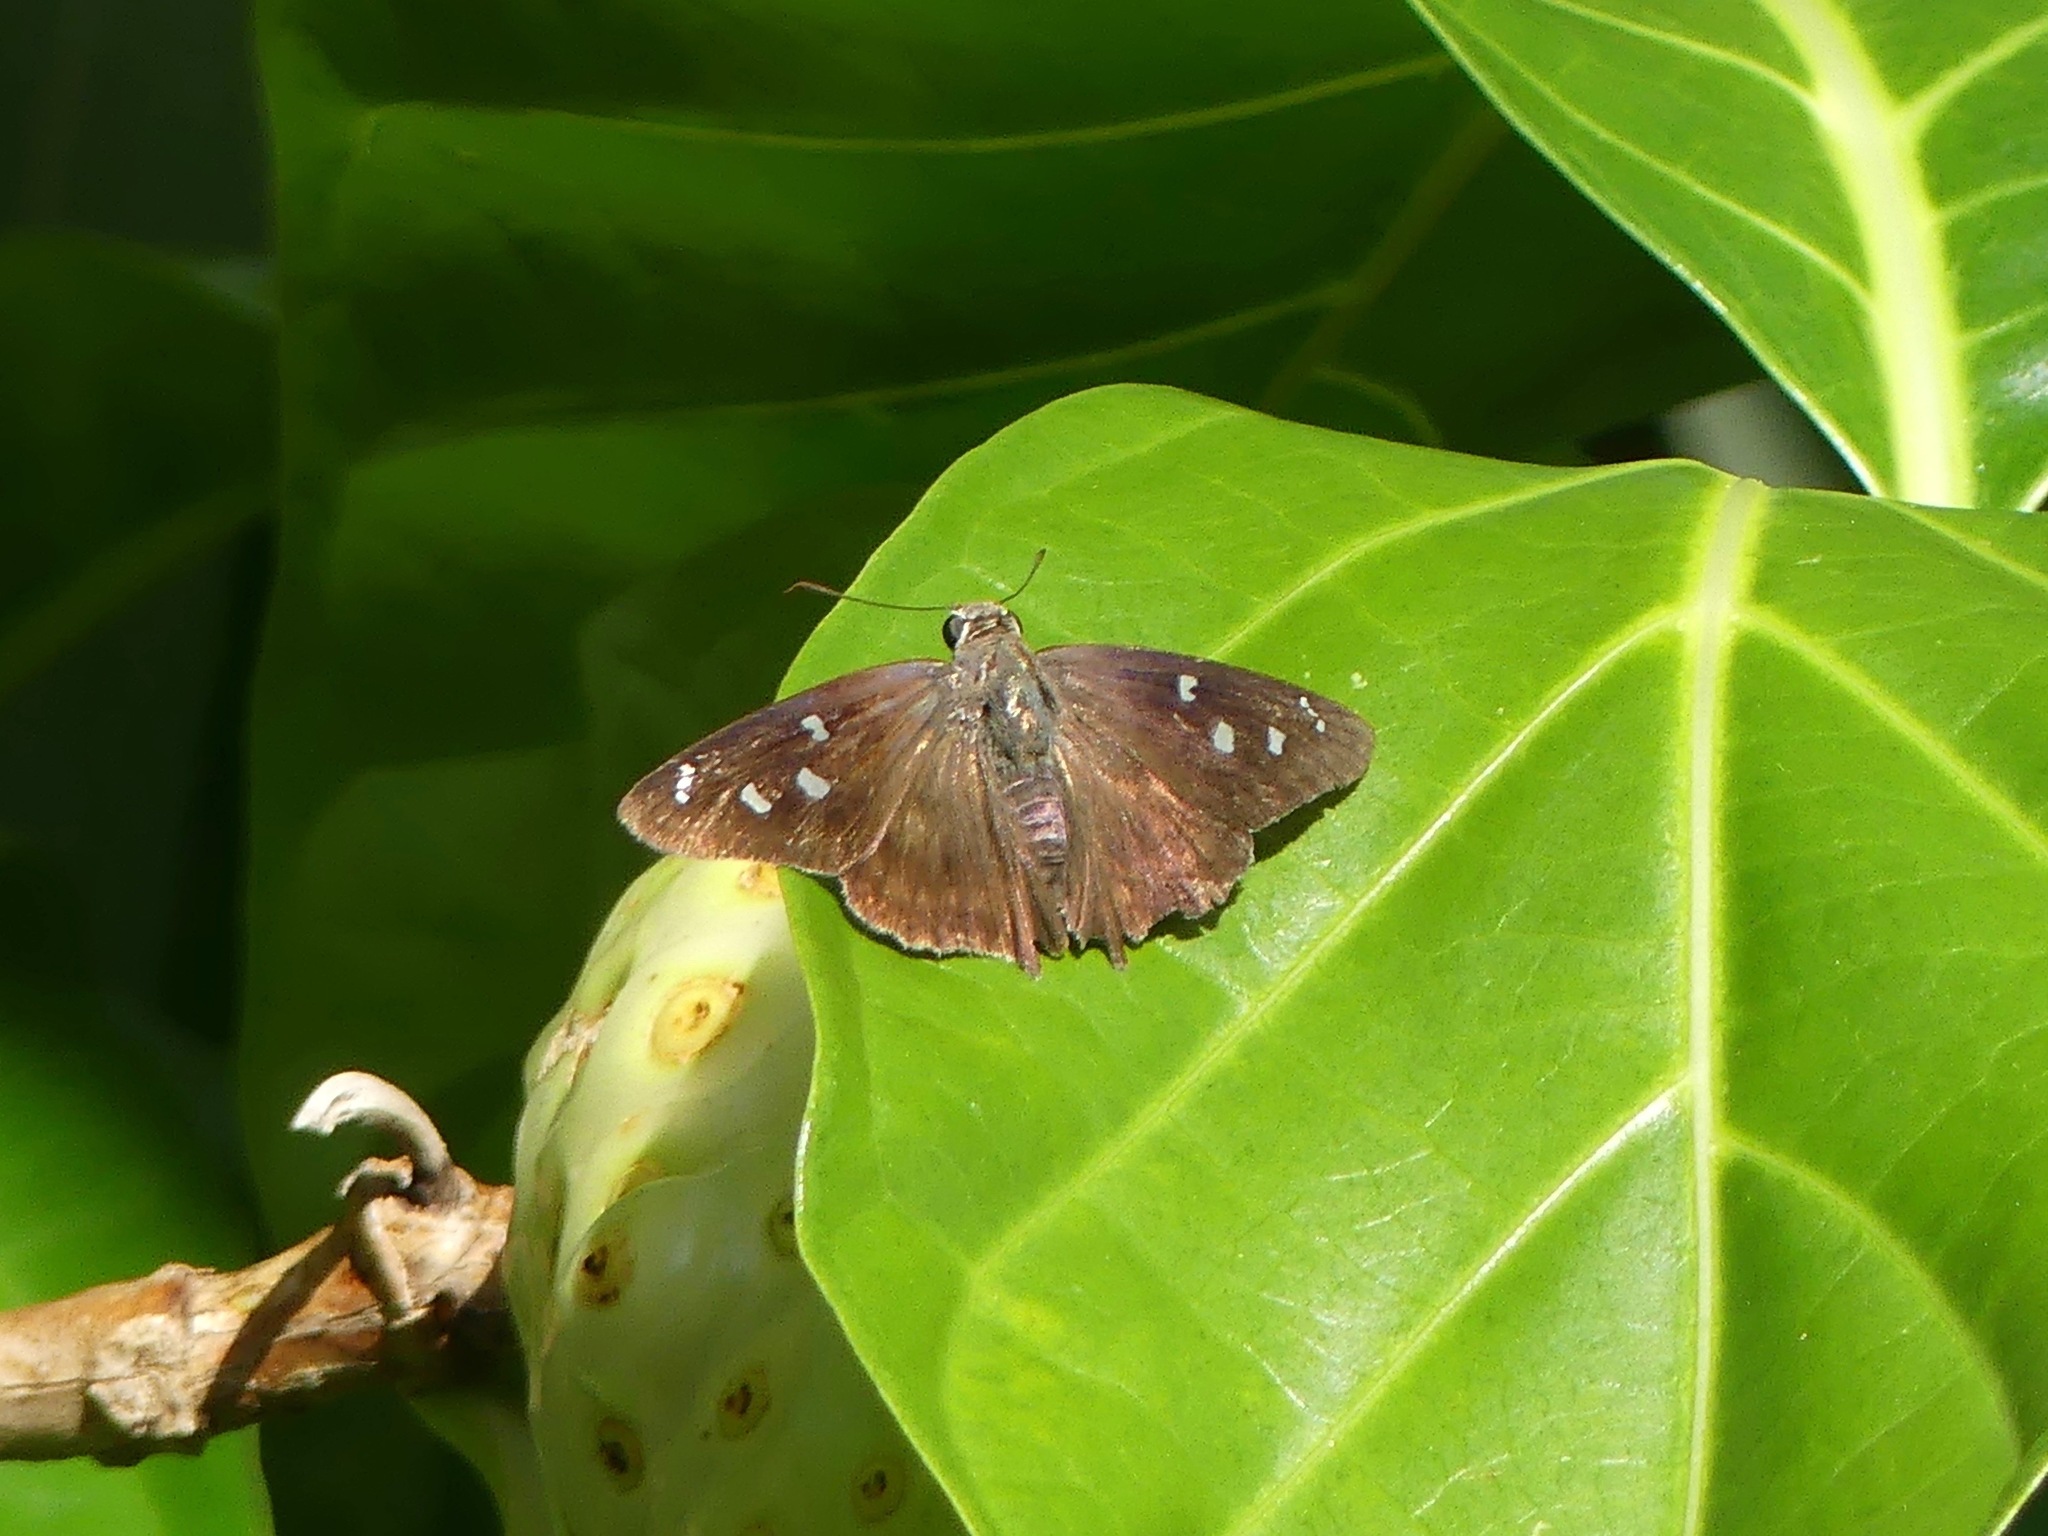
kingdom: Animalia
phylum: Arthropoda
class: Insecta
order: Lepidoptera
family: Hesperiidae
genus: Polygonus
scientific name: Polygonus leo
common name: Hammoch skipper
